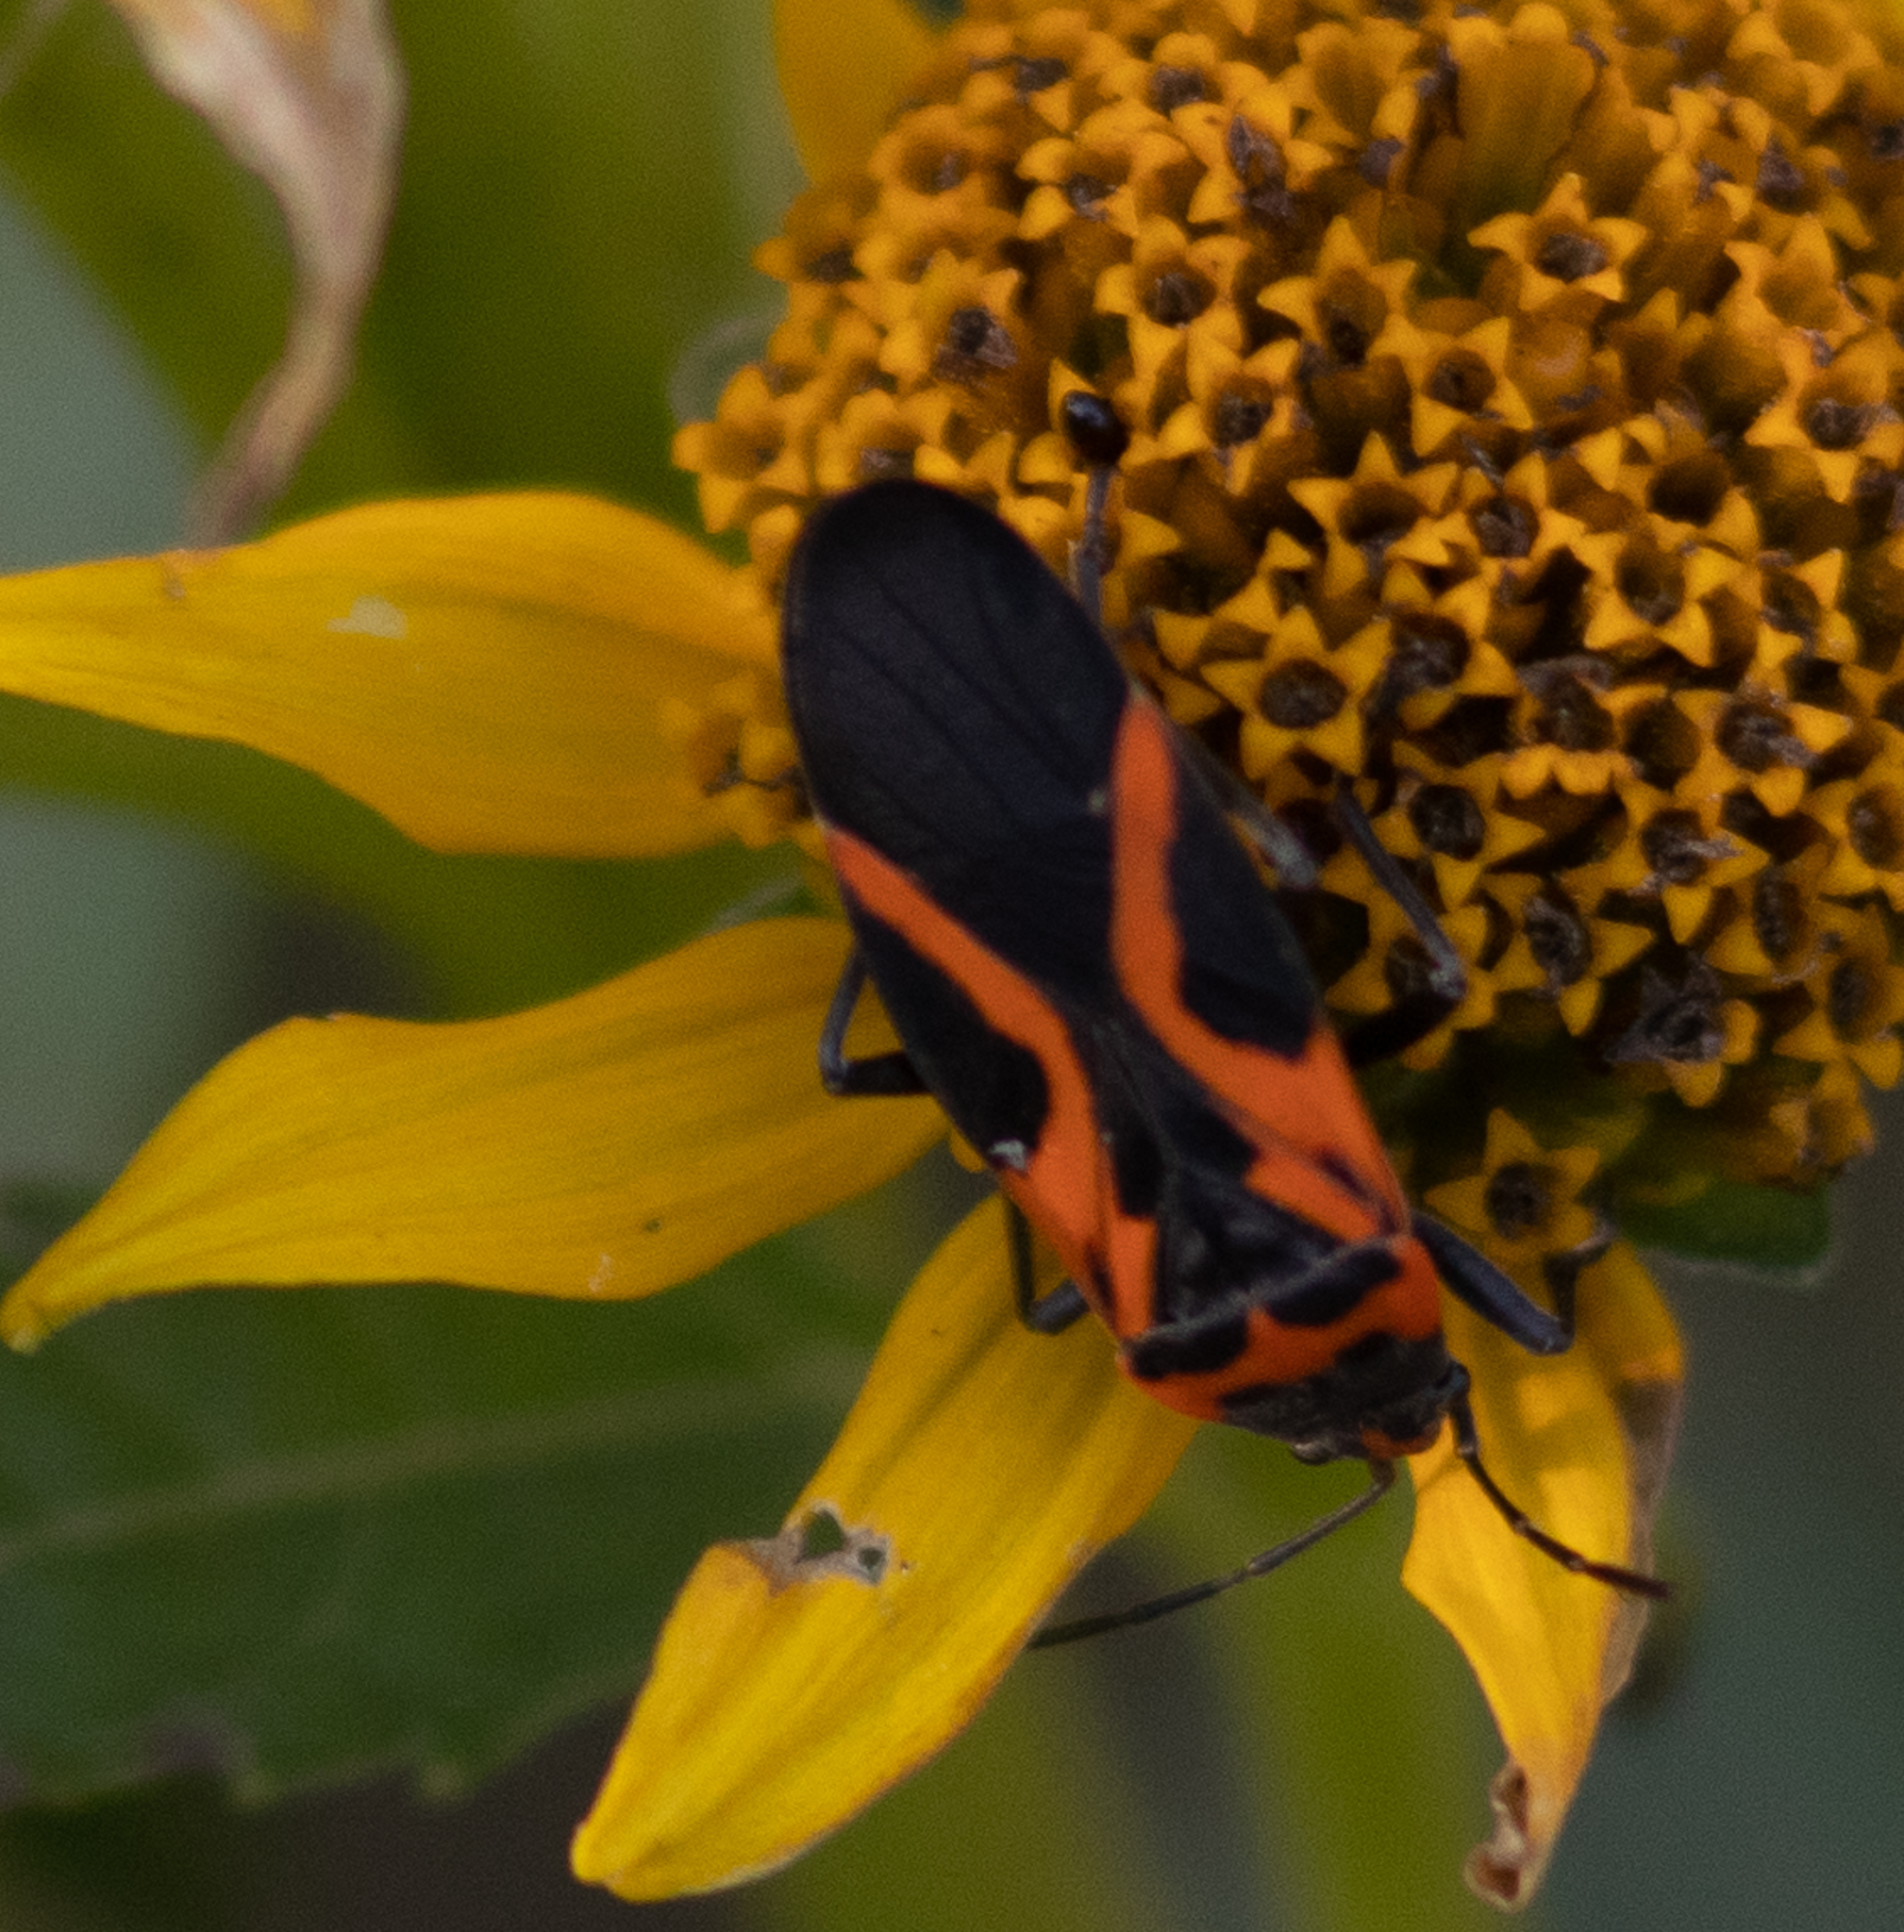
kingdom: Animalia
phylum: Arthropoda
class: Insecta
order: Hemiptera
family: Lygaeidae
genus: Lygaeus
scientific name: Lygaeus turcicus
